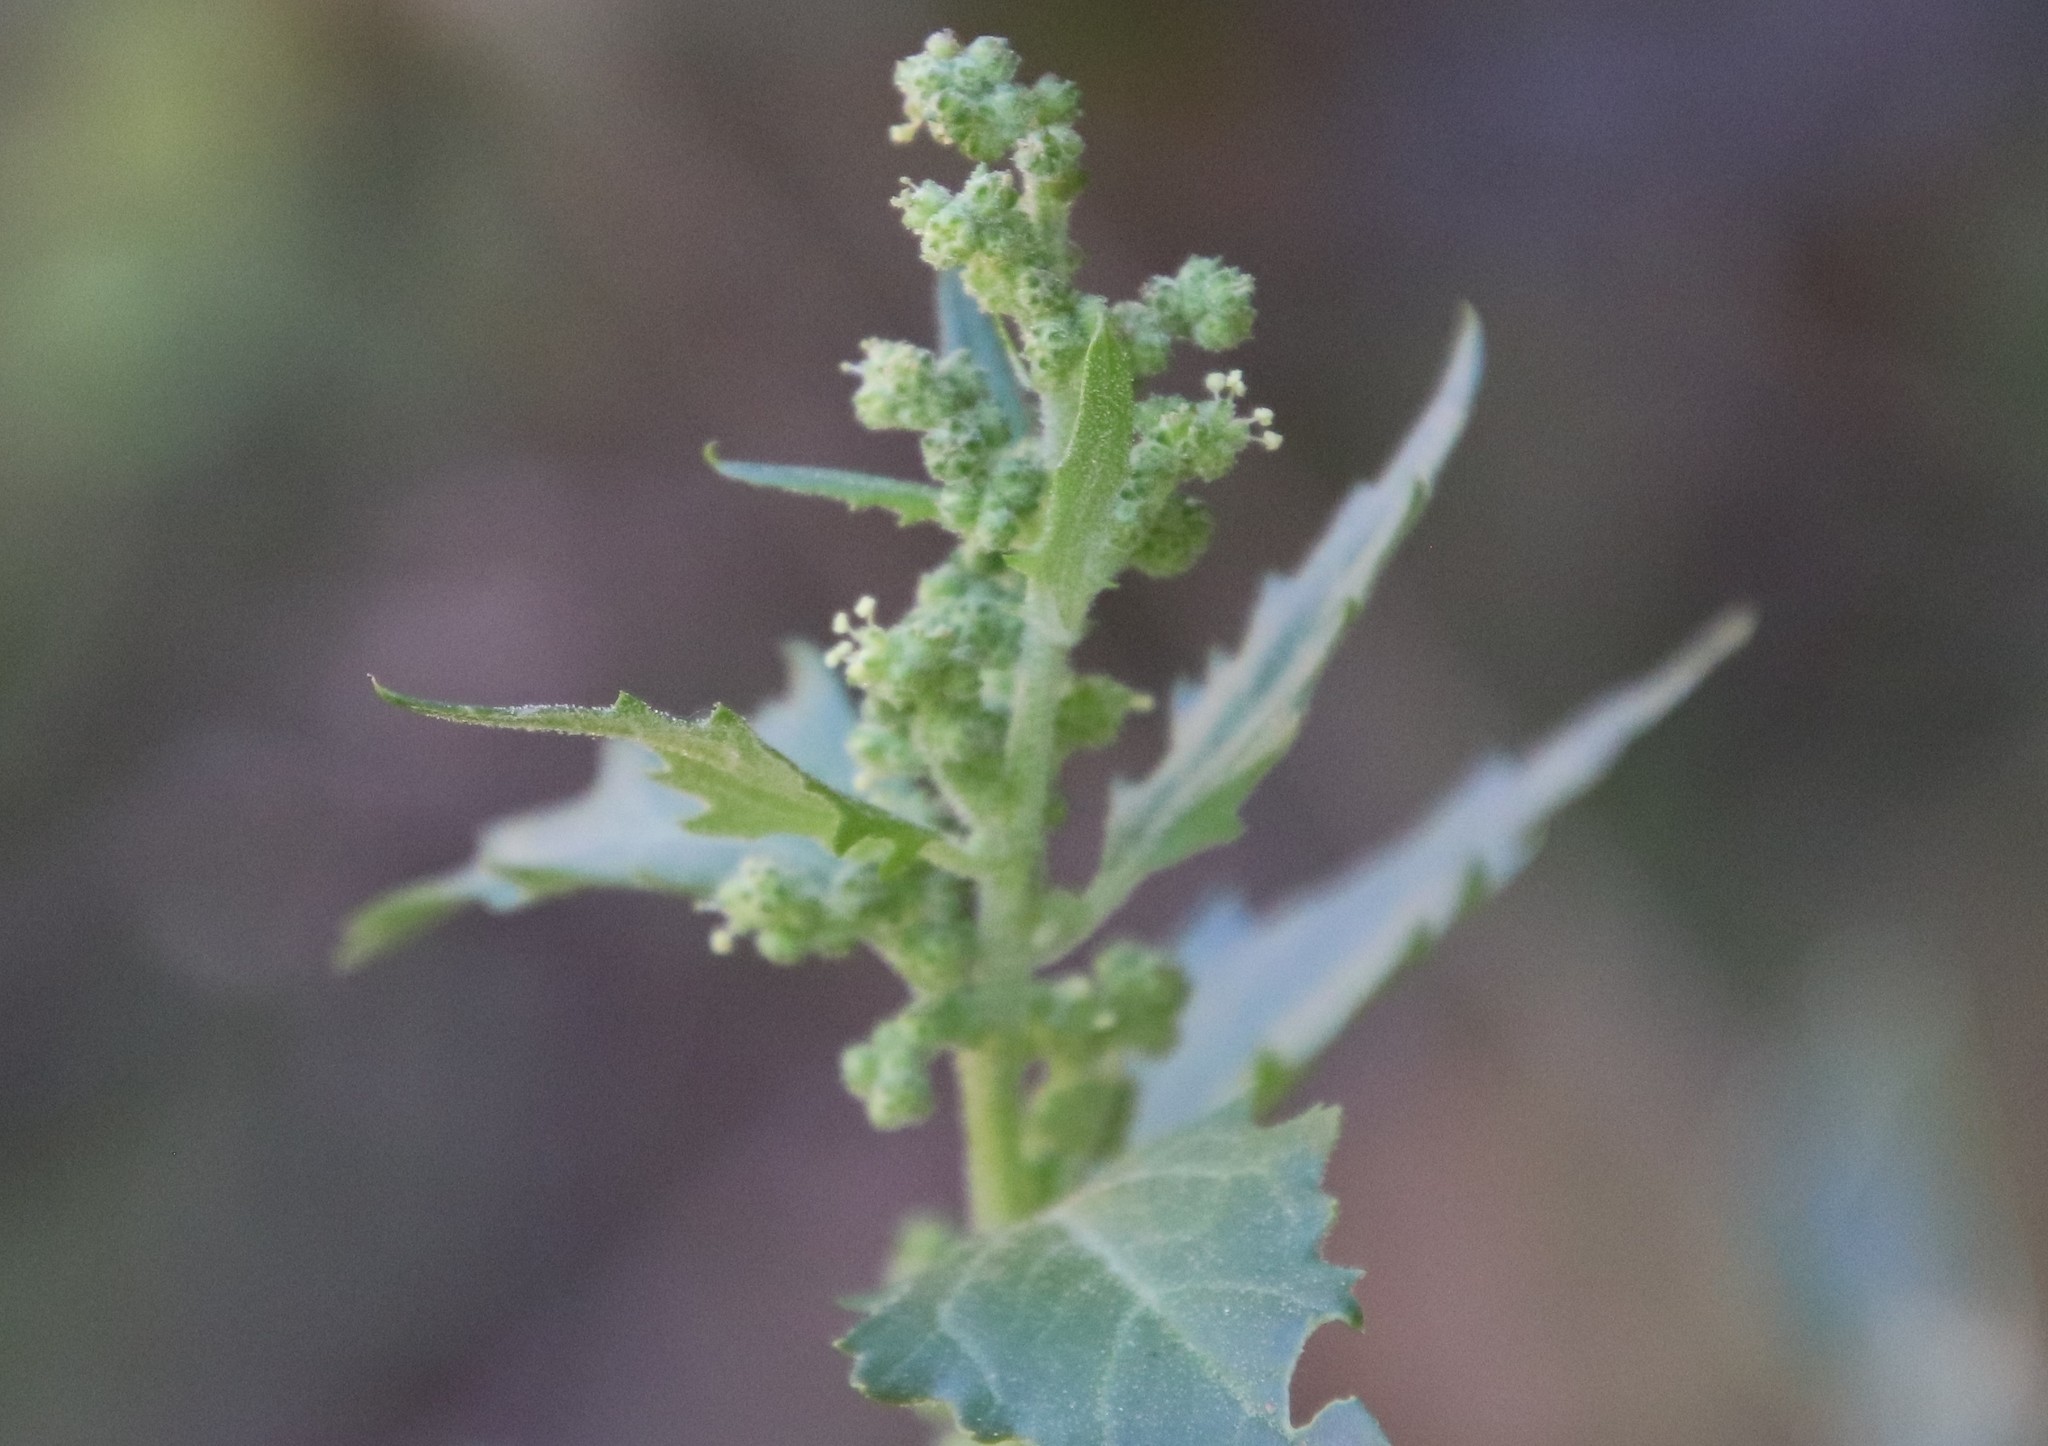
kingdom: Plantae
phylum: Tracheophyta
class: Magnoliopsida
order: Caryophyllales
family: Amaranthaceae
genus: Chenopodiastrum
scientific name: Chenopodiastrum murale
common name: Sowbane
